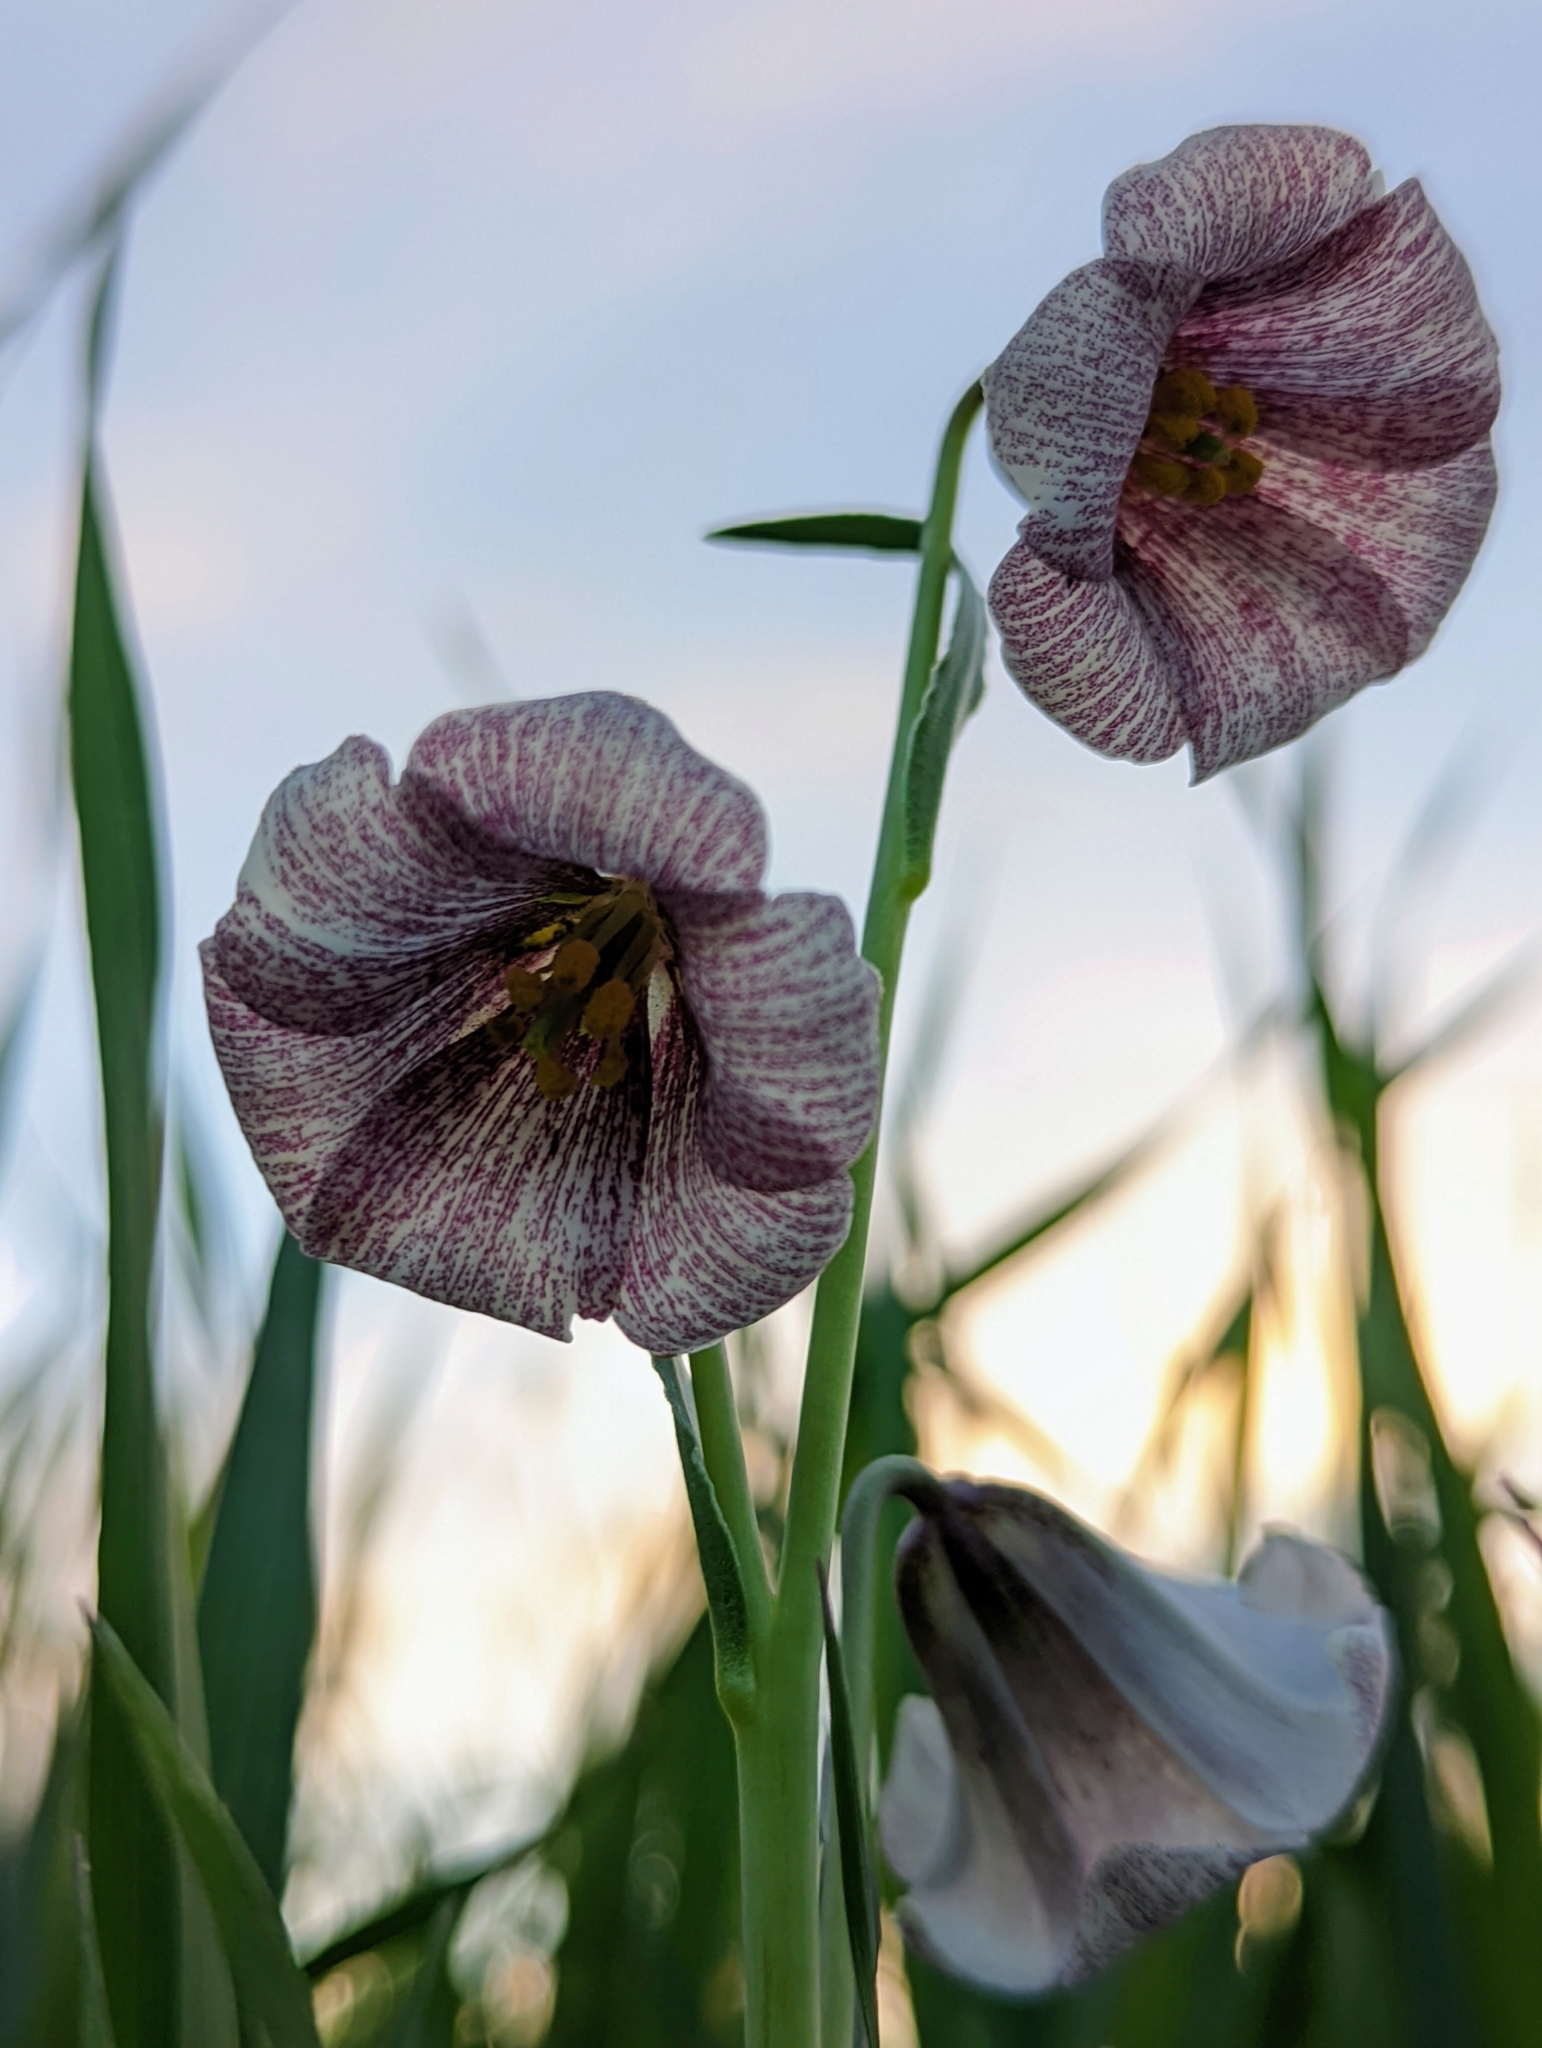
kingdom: Plantae
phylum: Tracheophyta
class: Liliopsida
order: Liliales
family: Liliaceae
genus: Fritillaria
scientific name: Fritillaria striata
